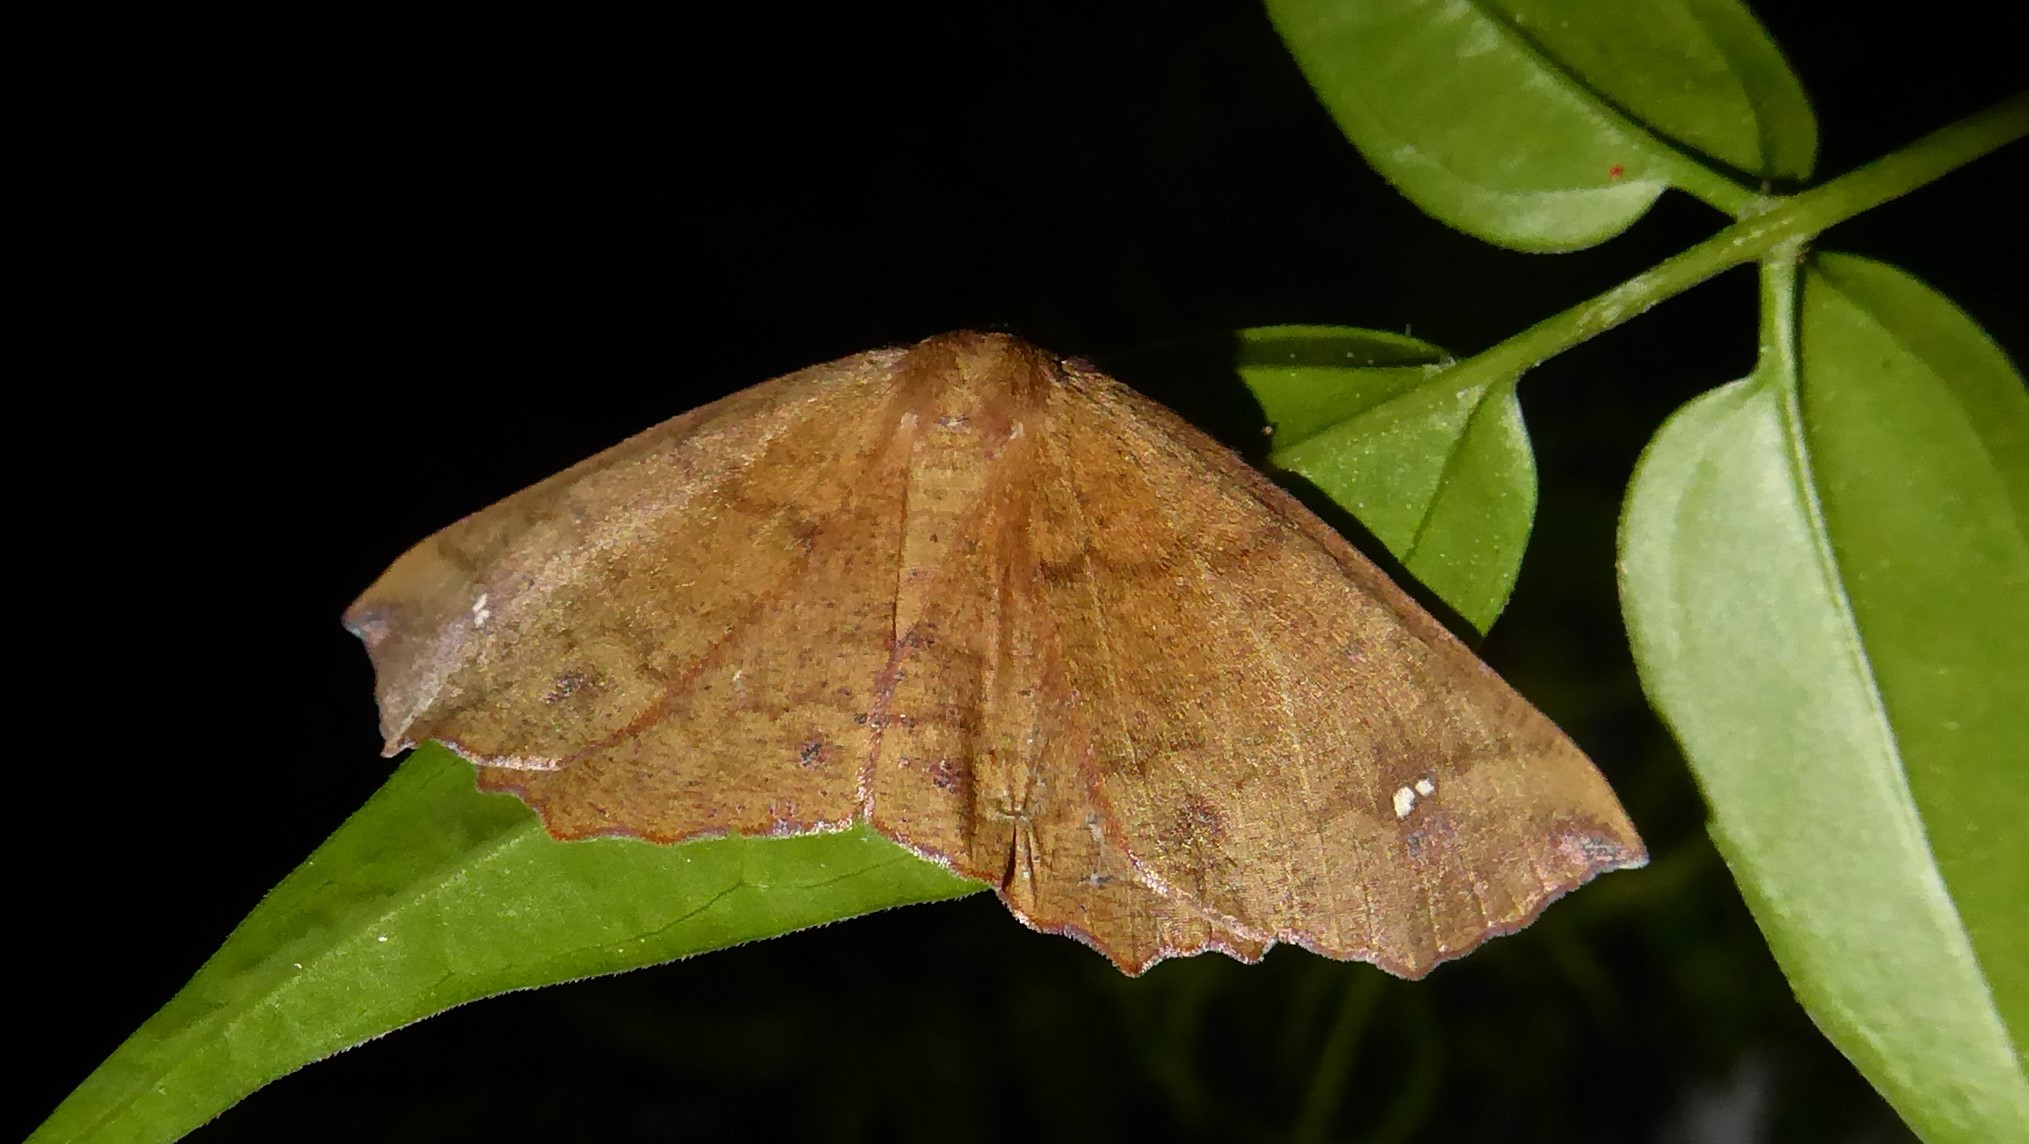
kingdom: Animalia
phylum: Arthropoda
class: Insecta
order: Lepidoptera
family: Geometridae
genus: Xyridacma
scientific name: Xyridacma ustaria
